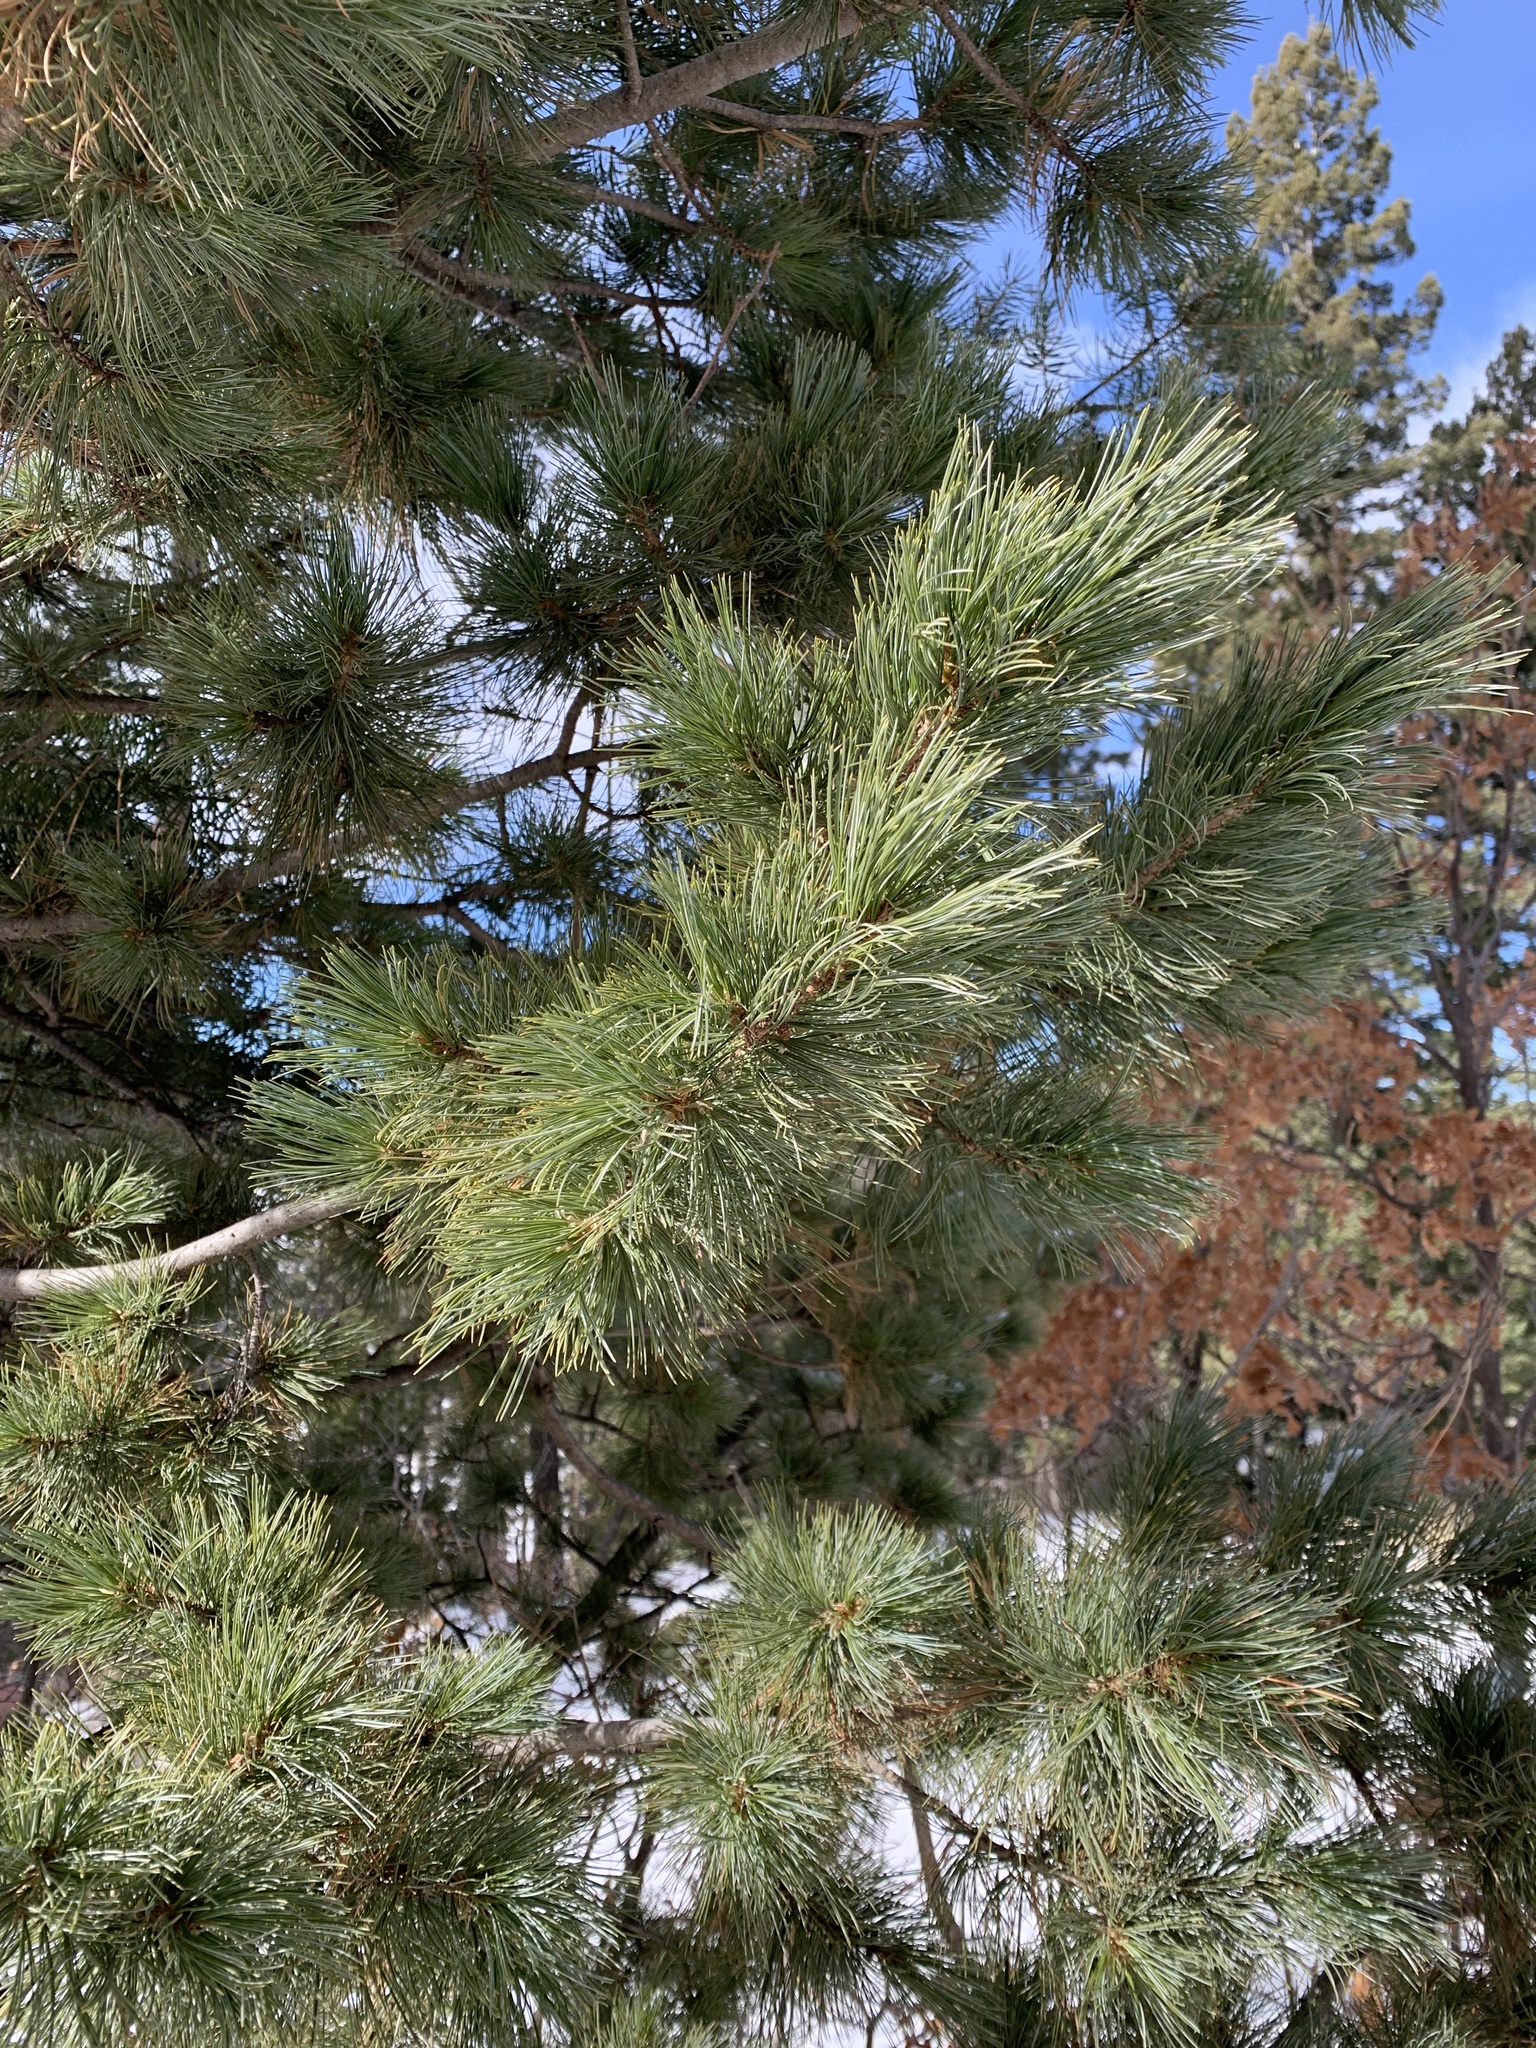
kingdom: Plantae
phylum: Tracheophyta
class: Pinopsida
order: Pinales
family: Pinaceae
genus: Pinus
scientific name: Pinus strobiformis
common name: Southwestern white pine
